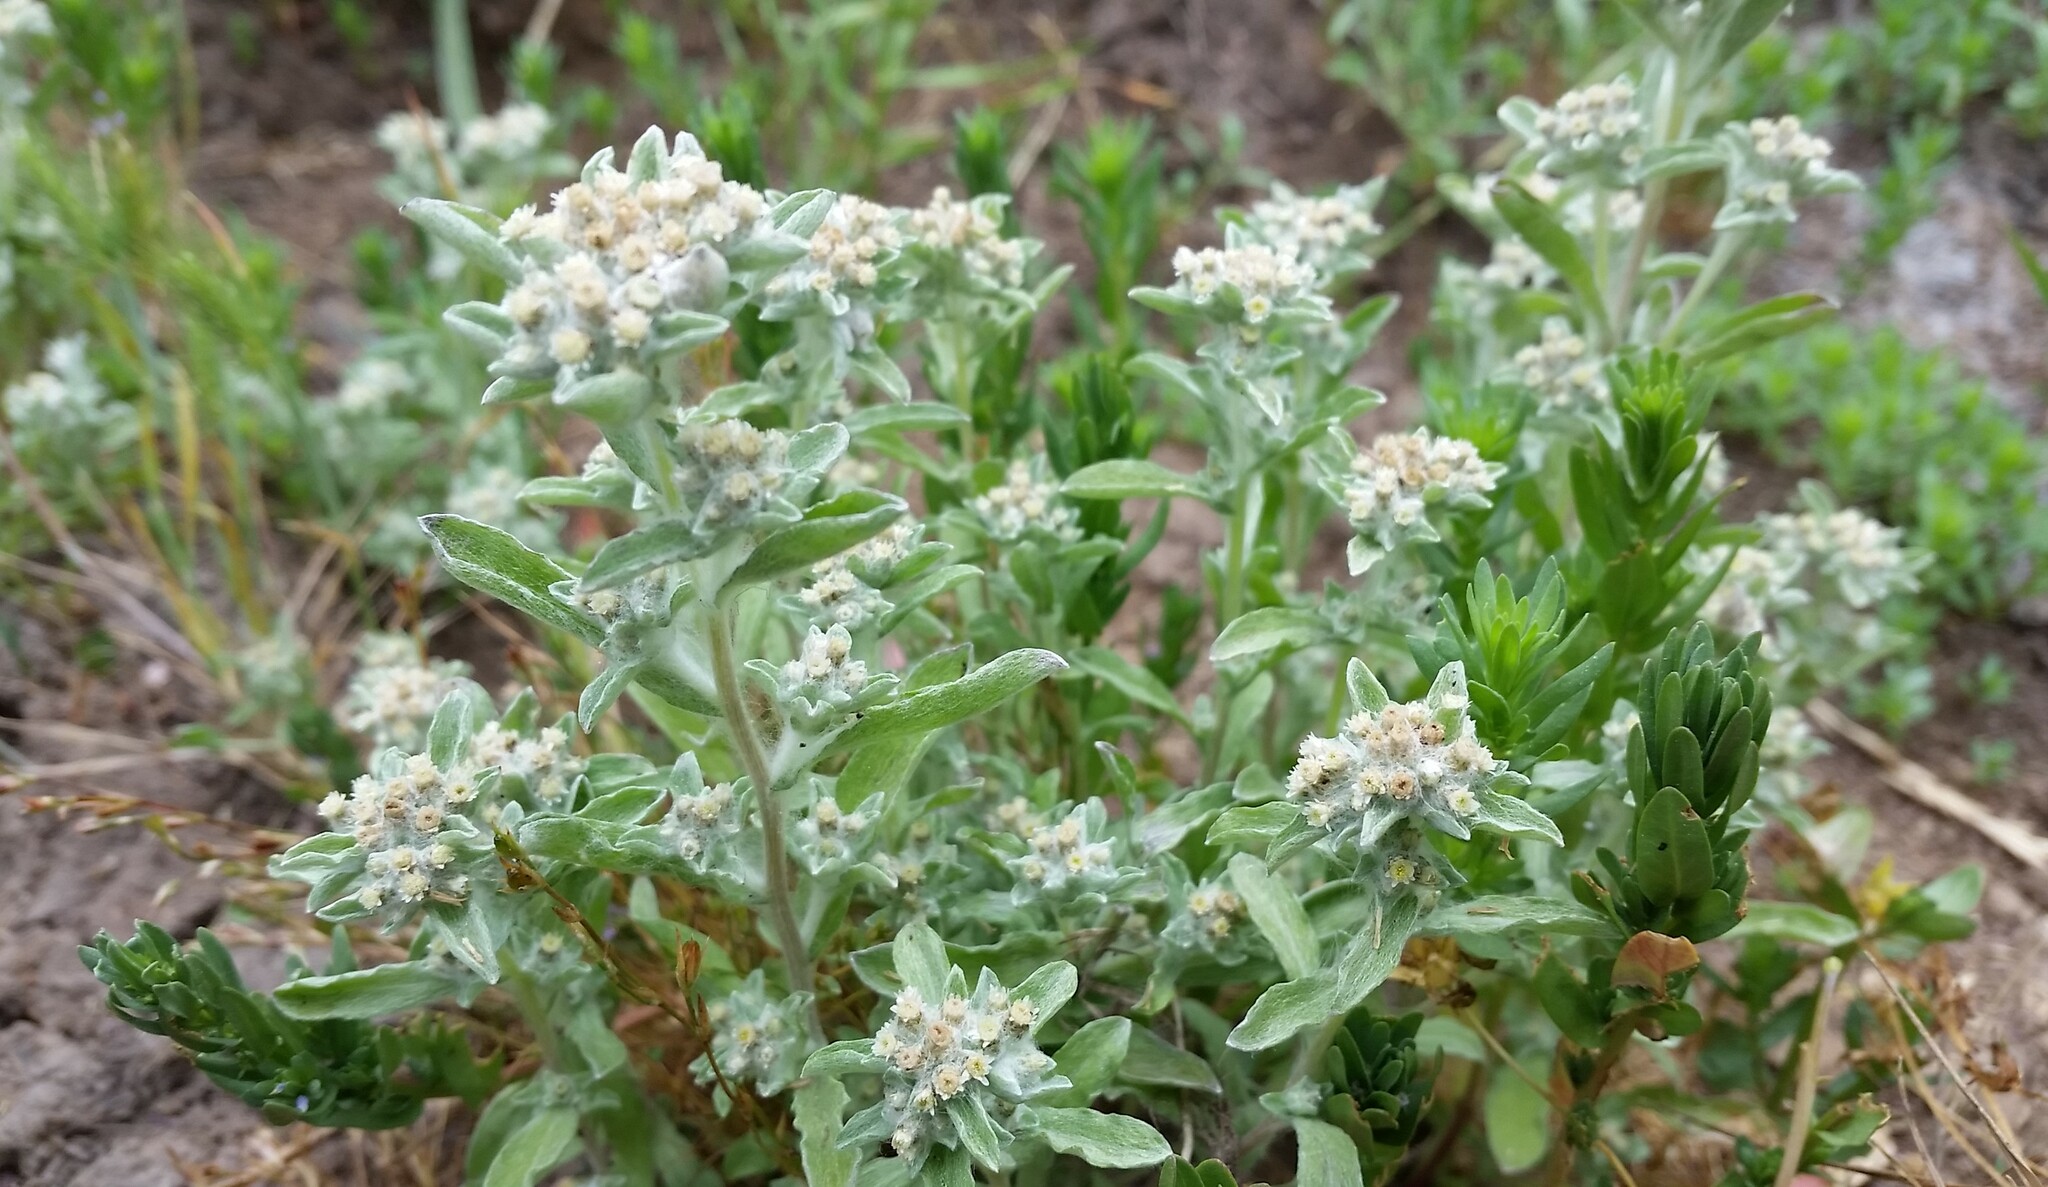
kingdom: Plantae
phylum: Tracheophyta
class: Magnoliopsida
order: Asterales
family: Asteraceae
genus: Gnaphalium
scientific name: Gnaphalium palustre
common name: Western marsh cudweed
